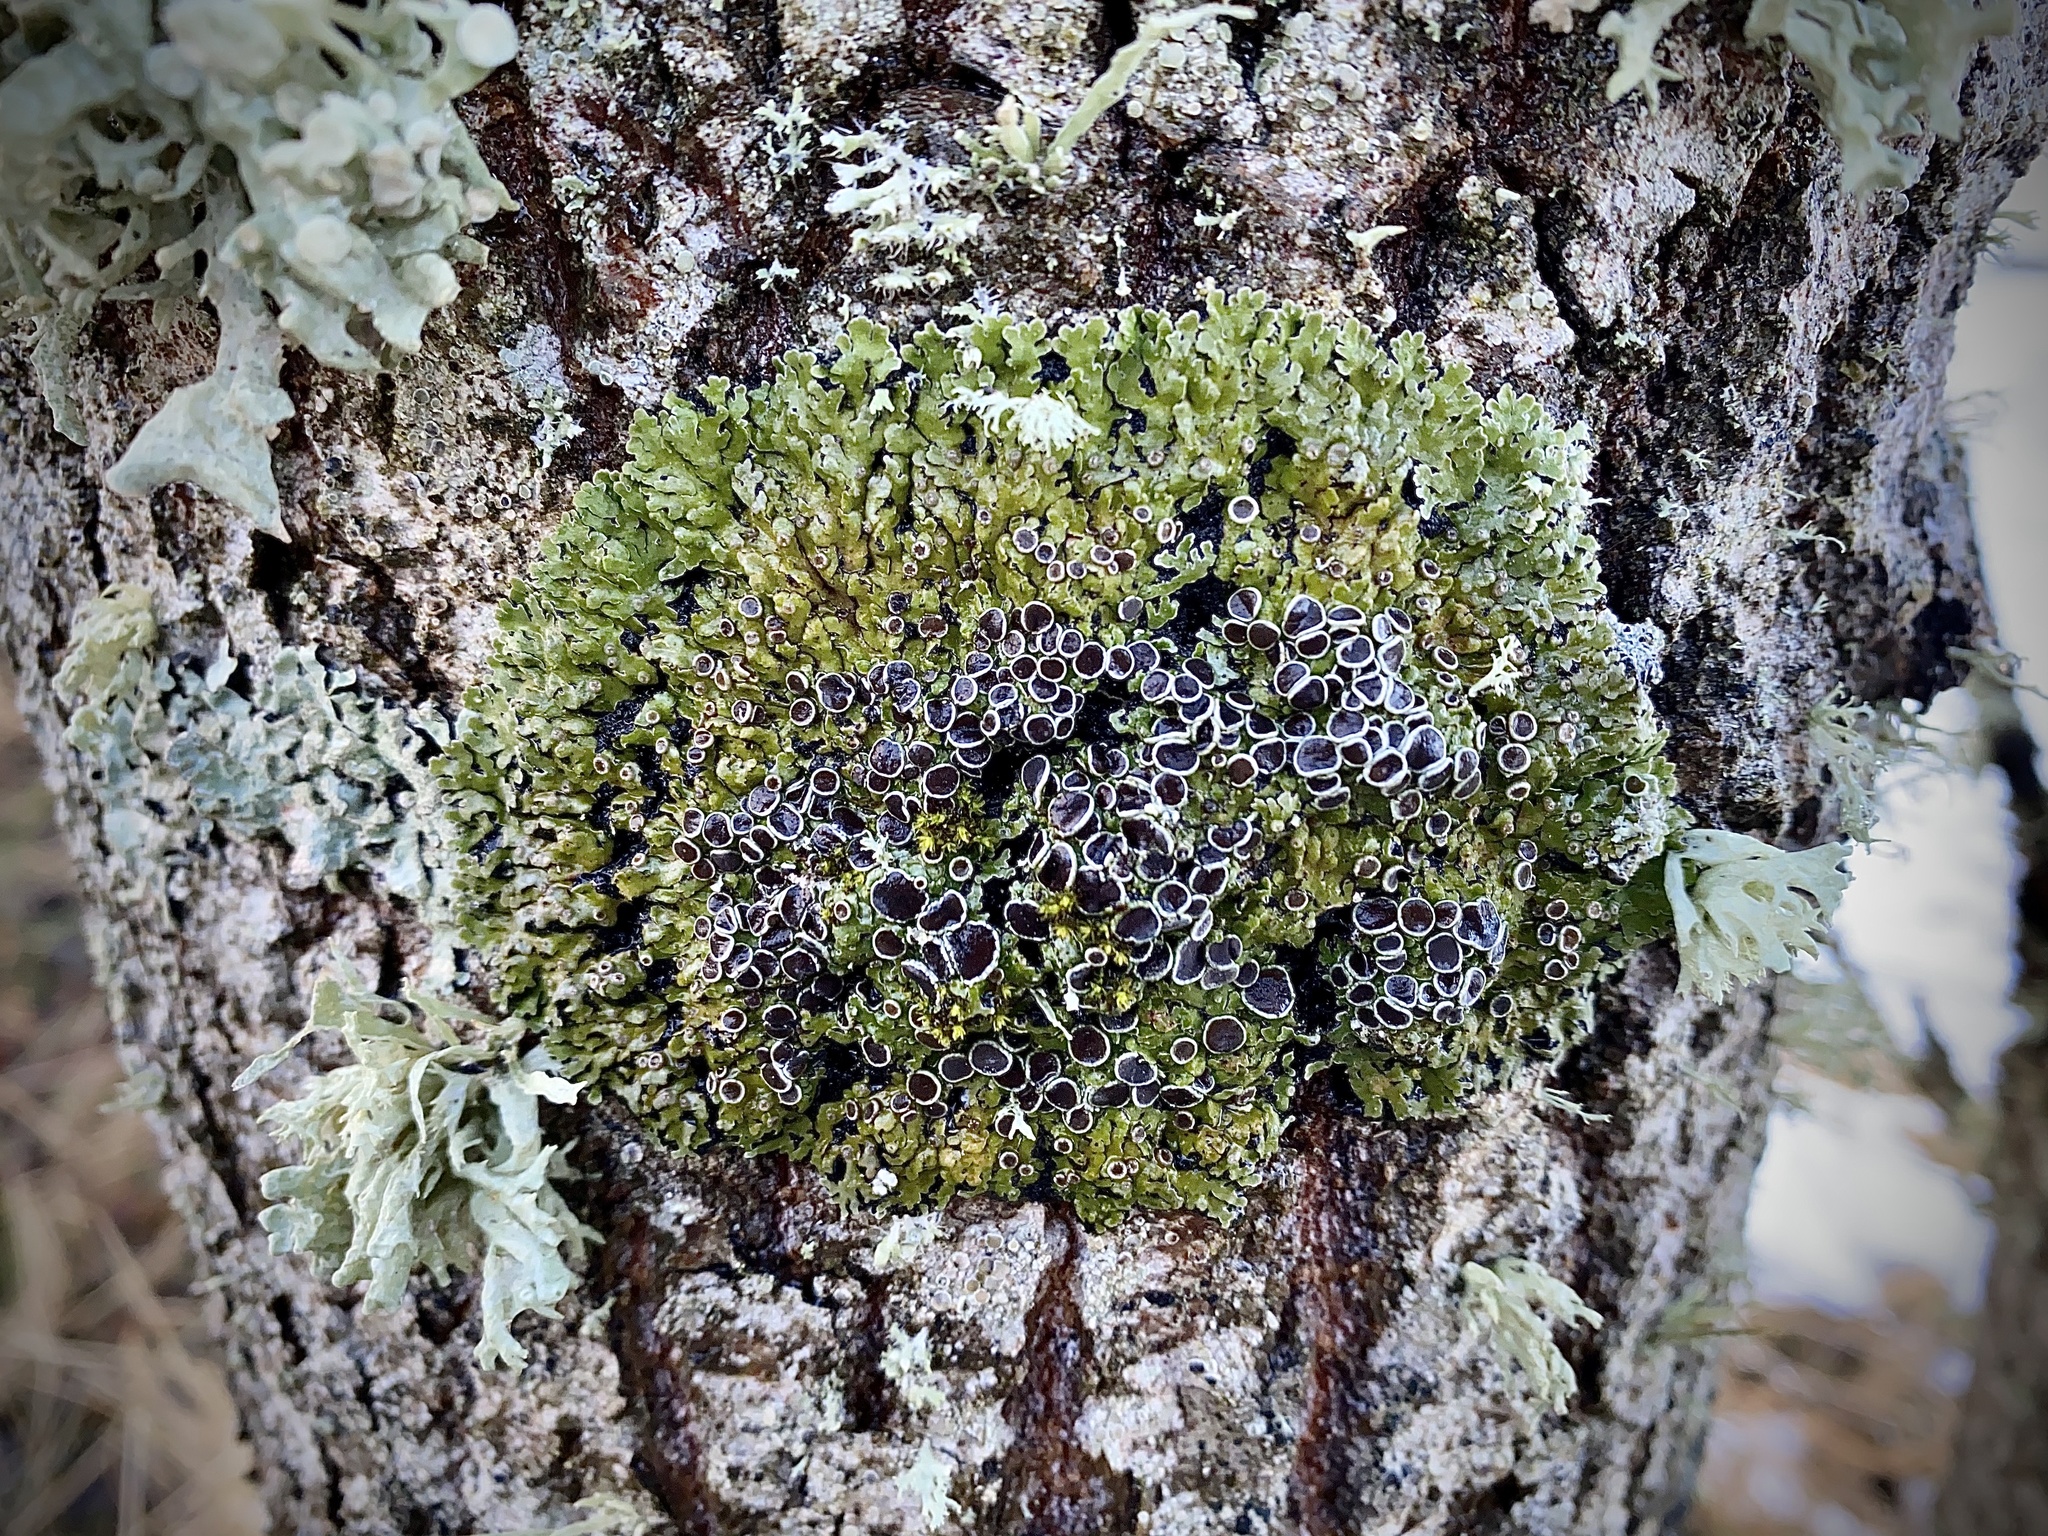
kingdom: Fungi
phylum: Ascomycota
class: Lecanoromycetes
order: Caliciales
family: Physciaceae
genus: Physconia
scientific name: Physconia distorta
